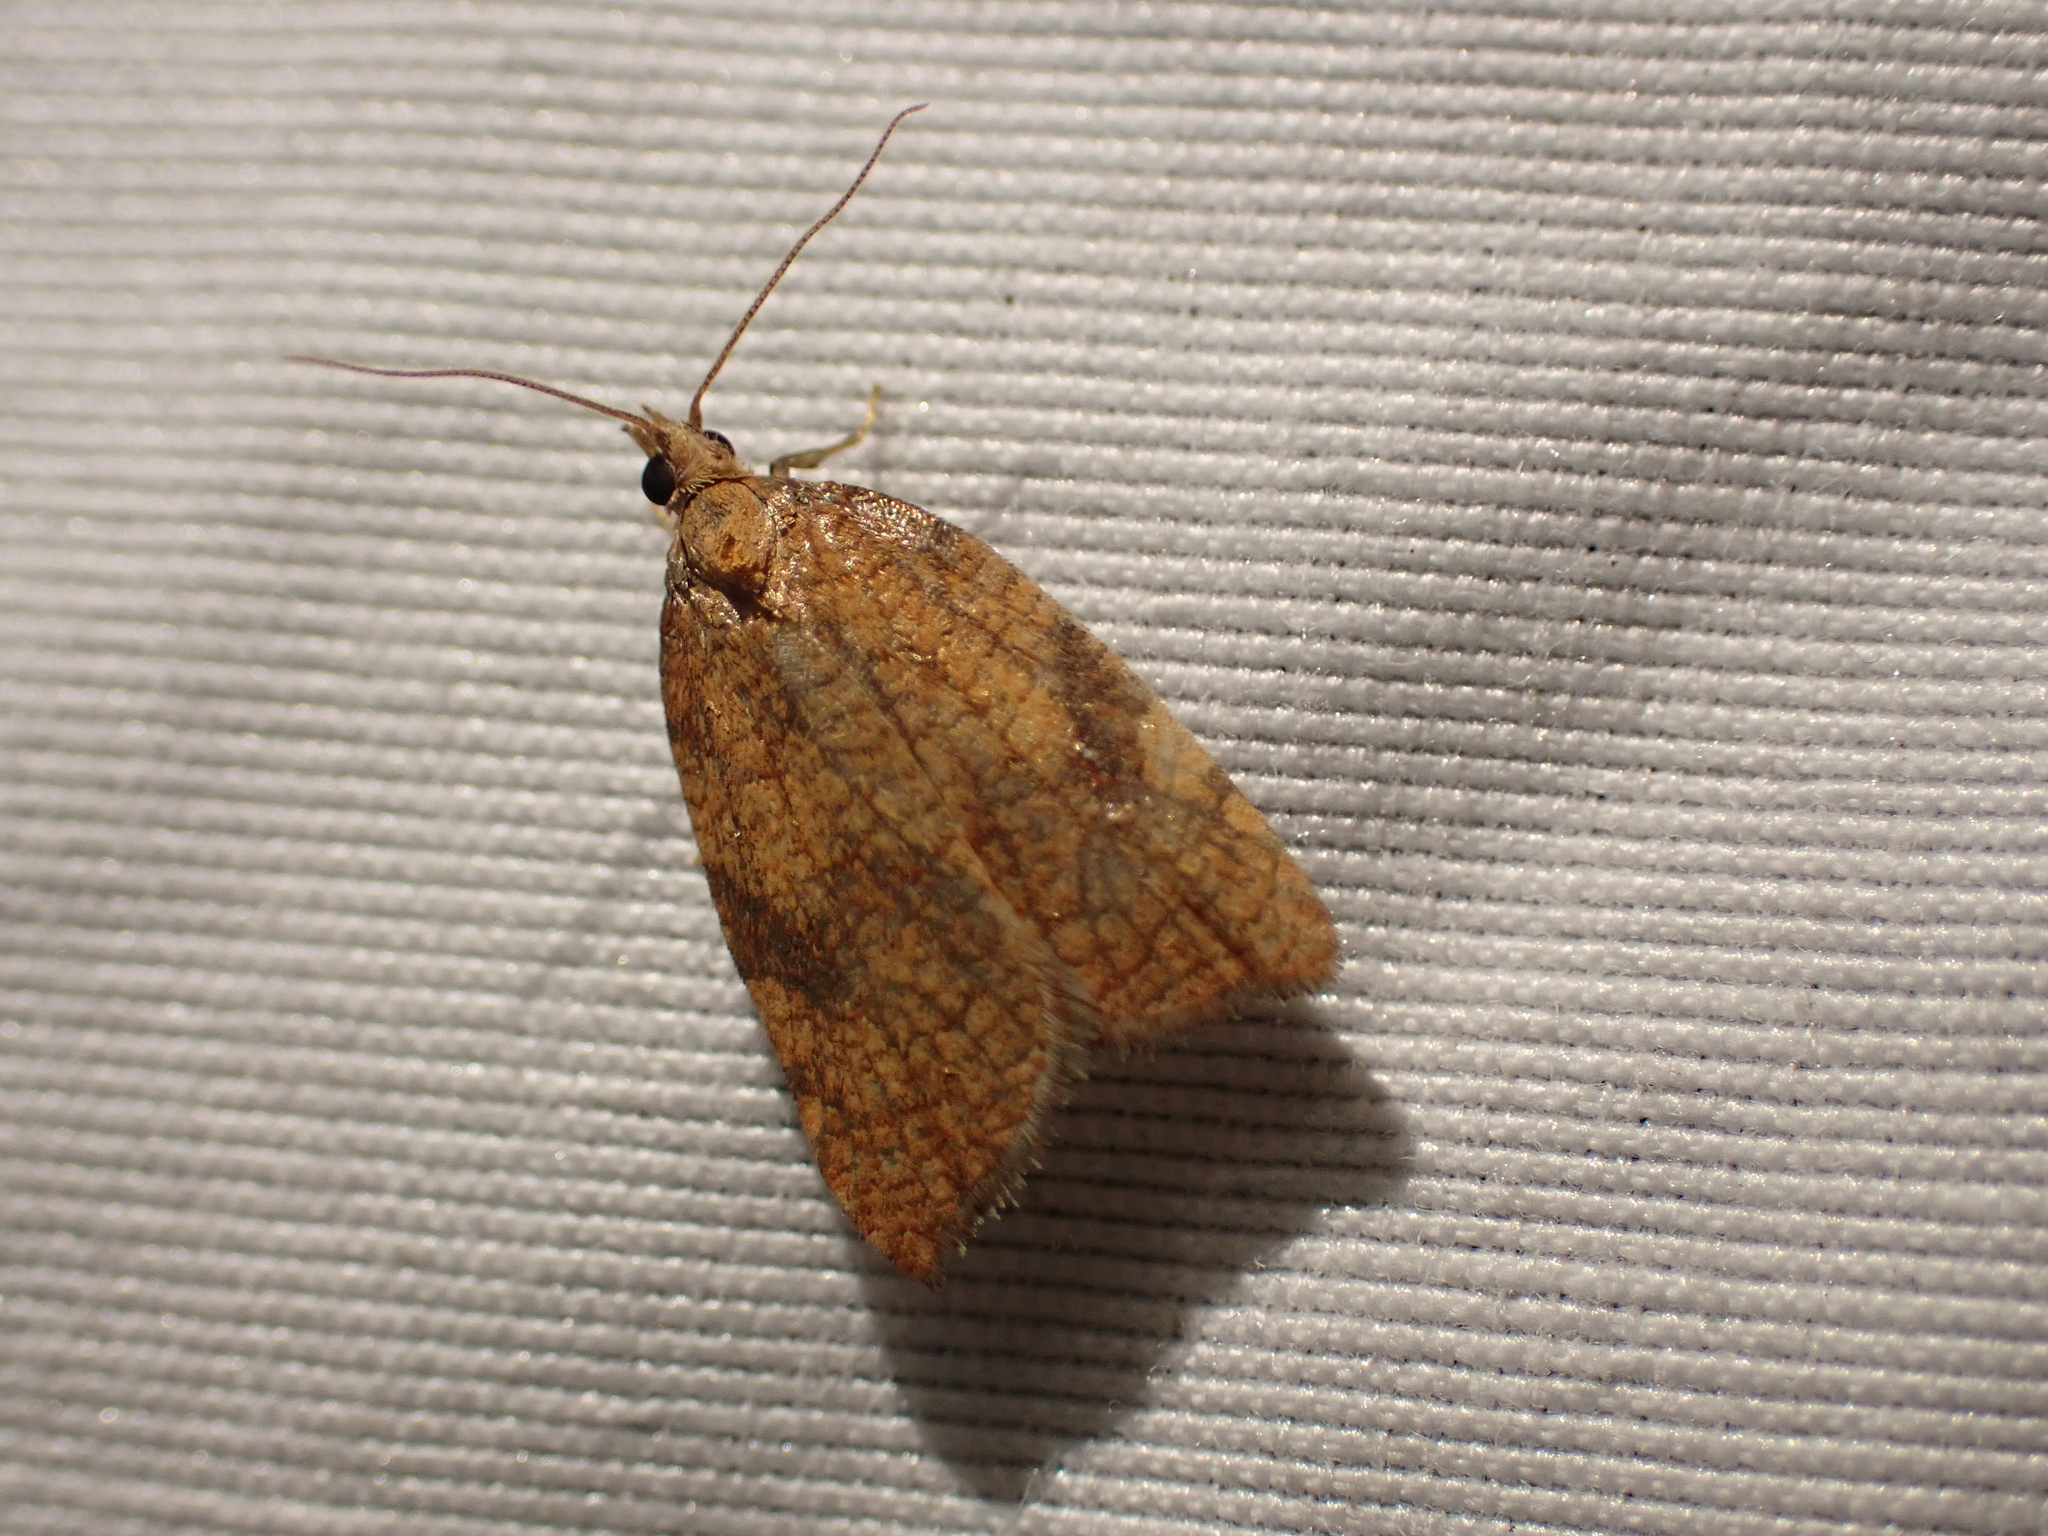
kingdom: Animalia
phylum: Arthropoda
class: Insecta
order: Lepidoptera
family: Tortricidae
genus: Acleris
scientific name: Acleris rhombana
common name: Tortricid moth
